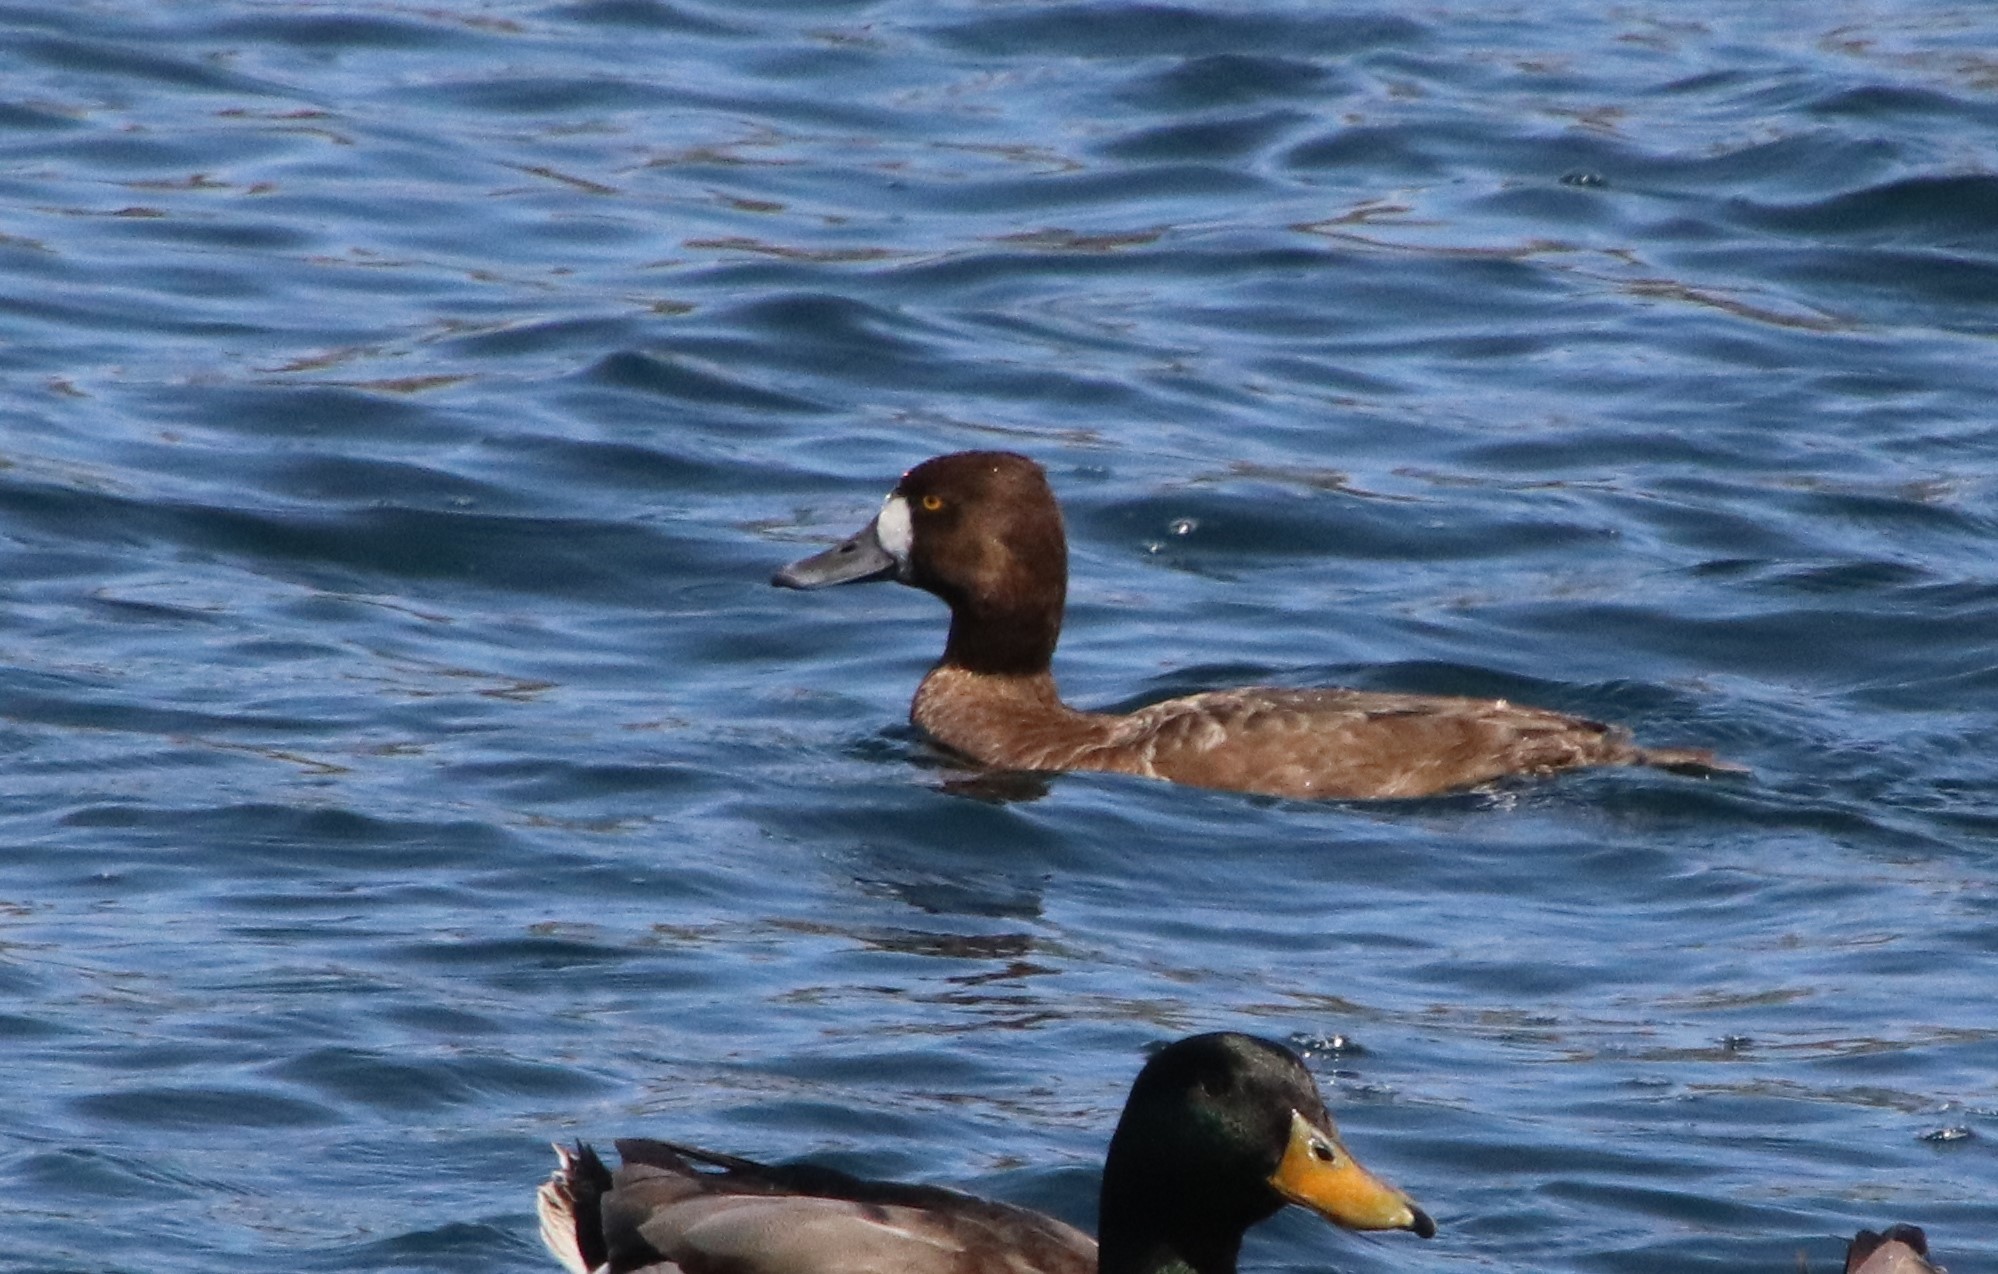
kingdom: Animalia
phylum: Chordata
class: Aves
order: Anseriformes
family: Anatidae
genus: Aythya
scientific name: Aythya affinis
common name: Lesser scaup
